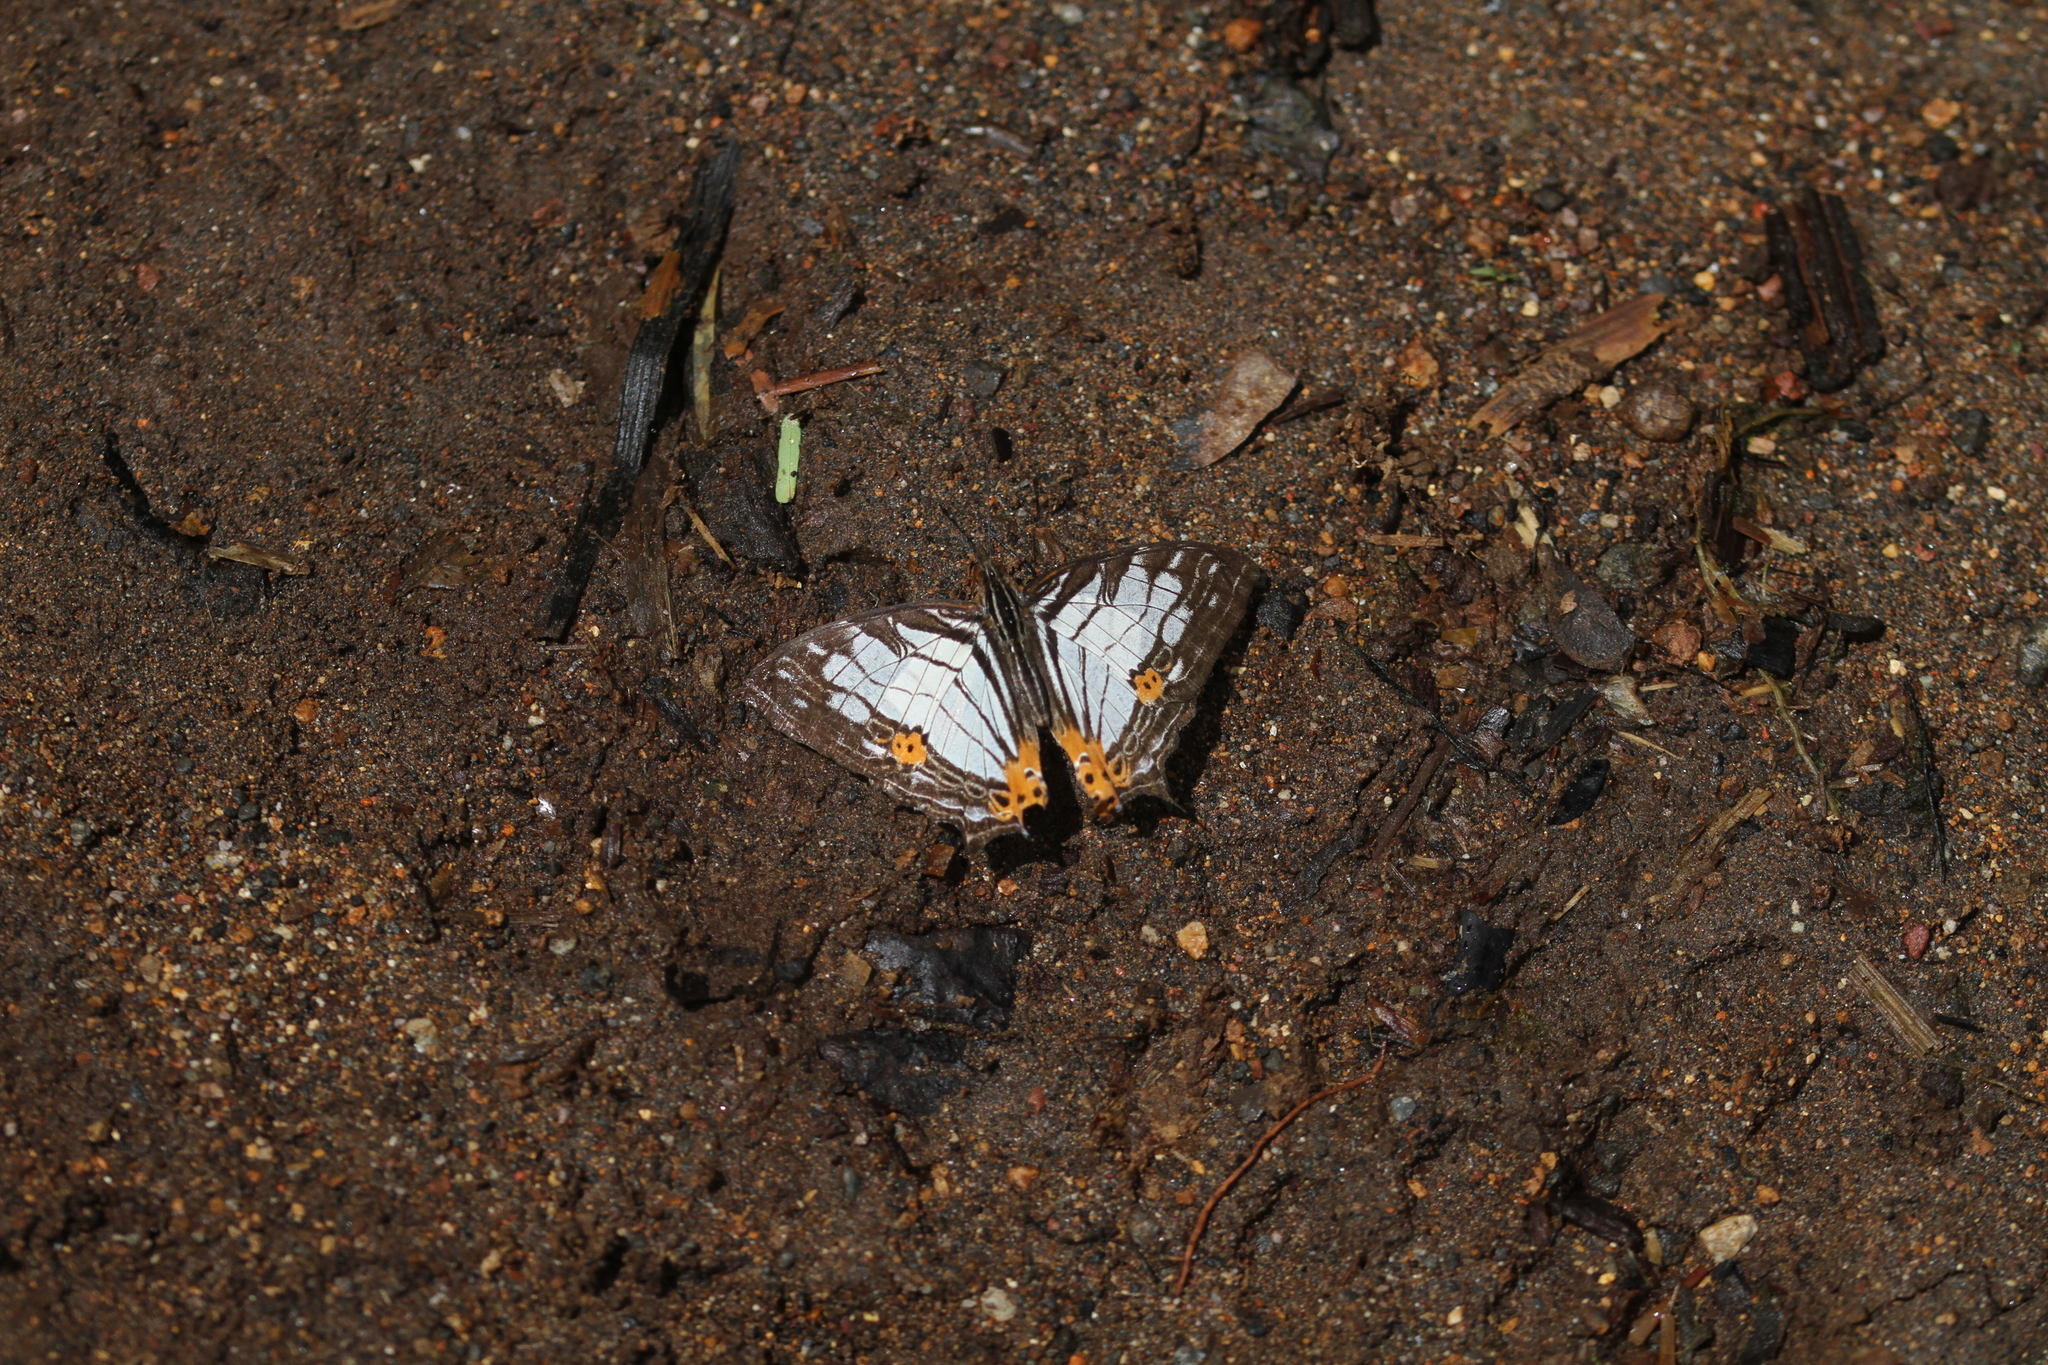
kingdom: Animalia
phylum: Arthropoda
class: Insecta
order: Lepidoptera
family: Nymphalidae
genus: Cyrestis
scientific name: Cyrestis maenalis
